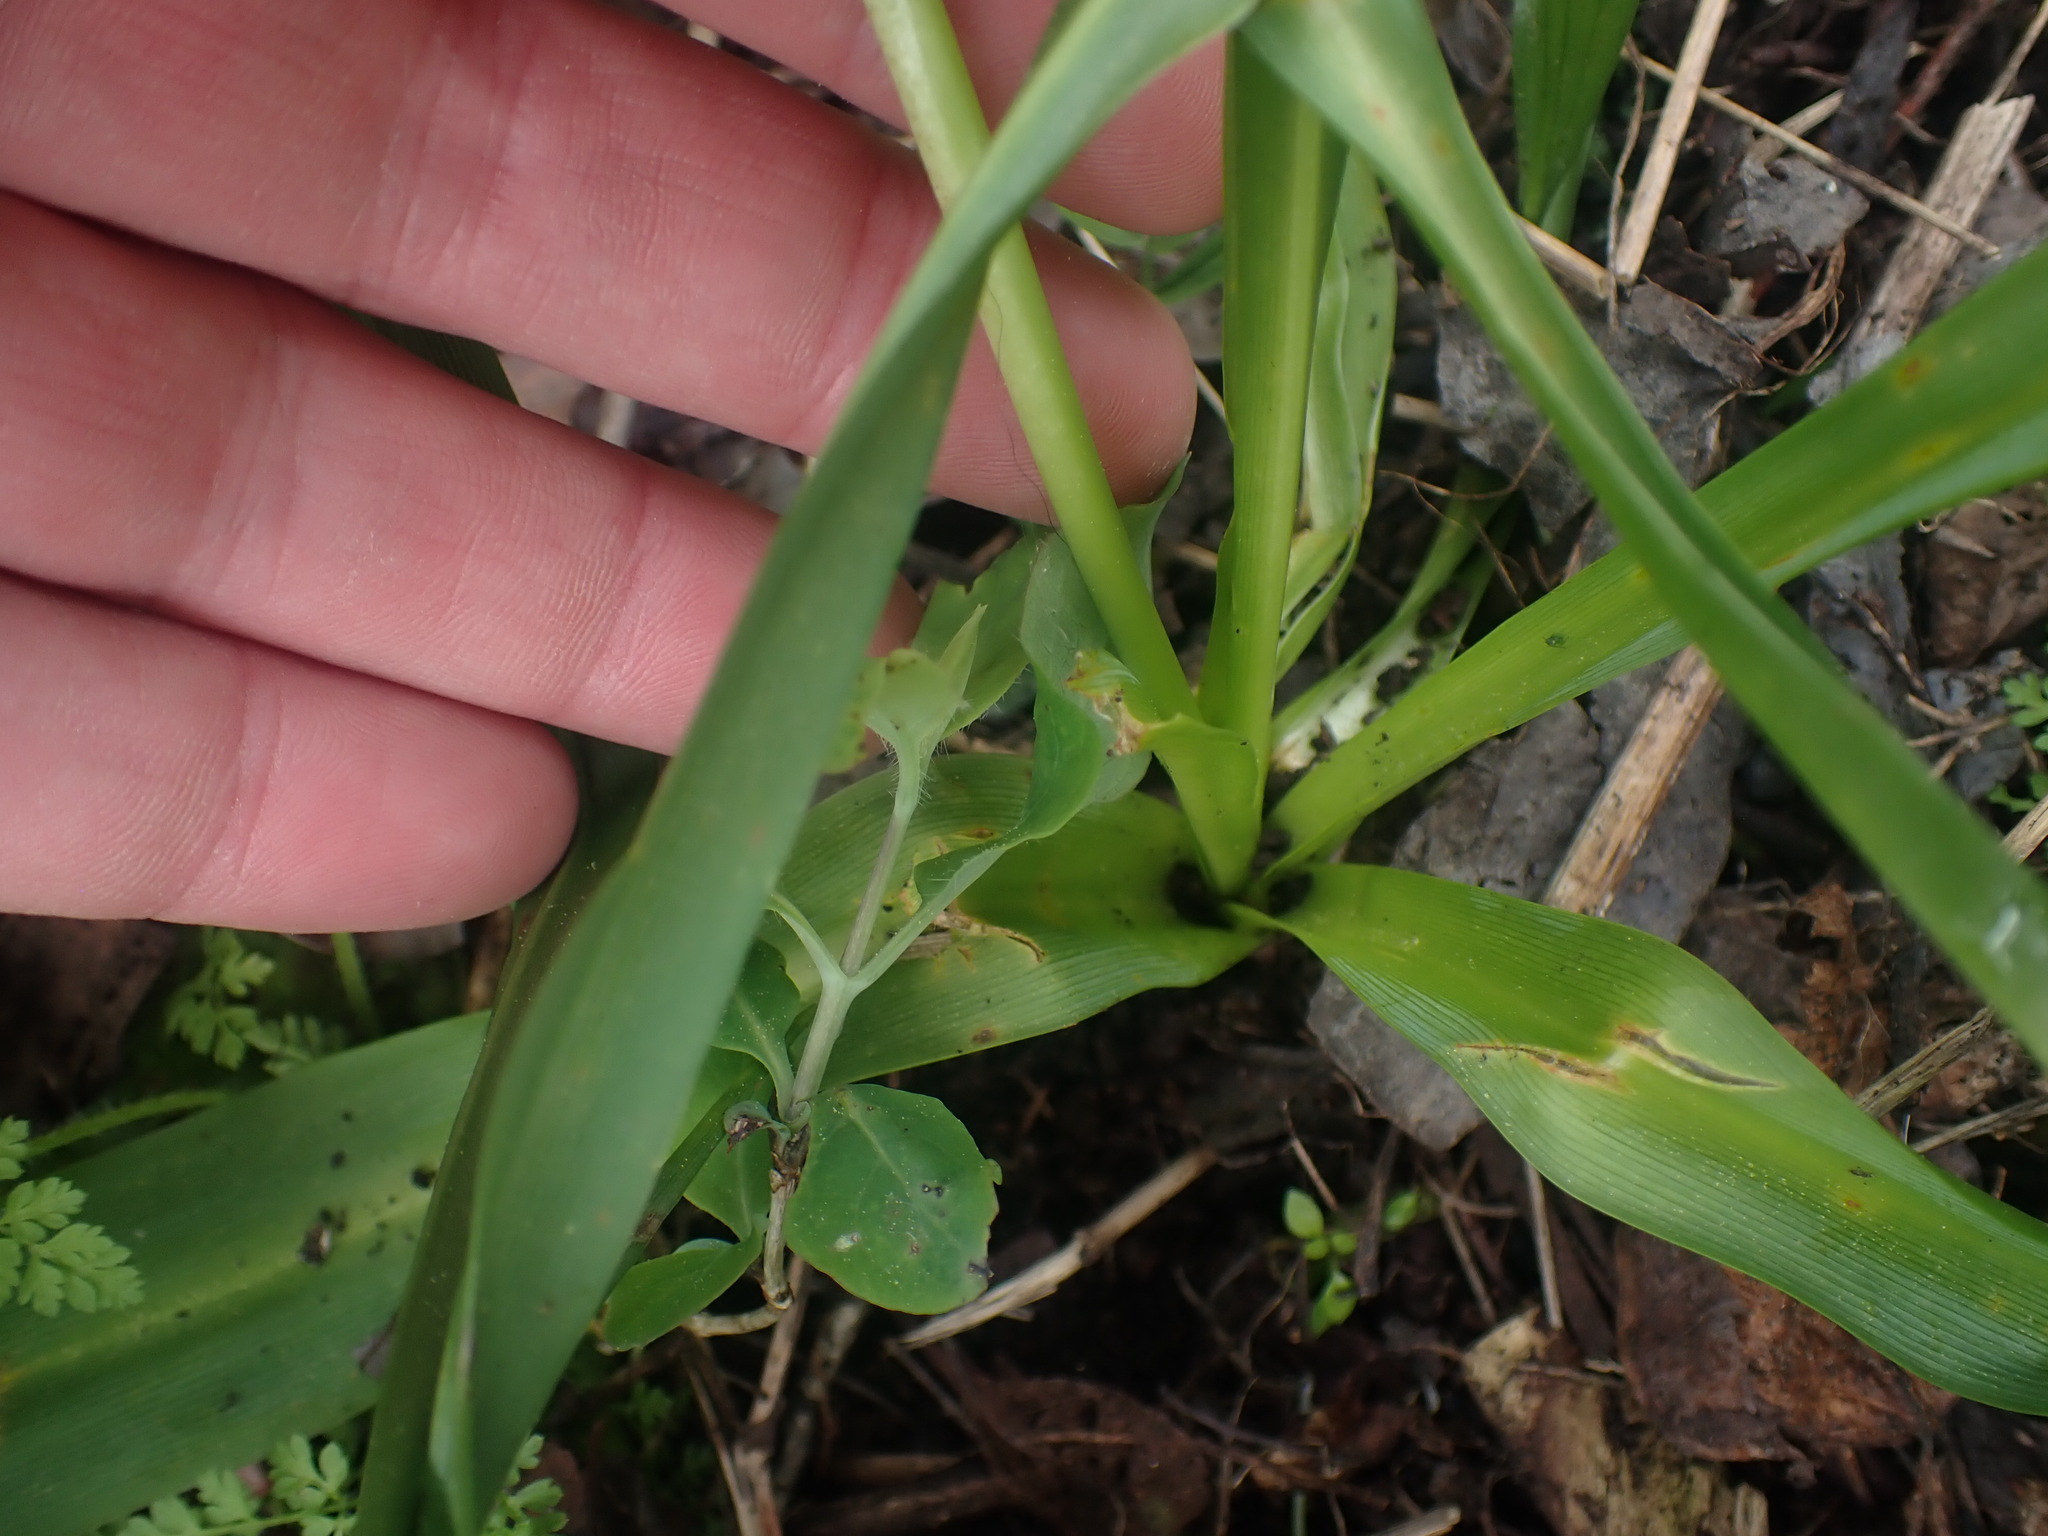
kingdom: Plantae
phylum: Tracheophyta
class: Liliopsida
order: Liliales
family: Liliaceae
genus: Fritillaria
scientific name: Fritillaria affinis
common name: Ojai fritillary
